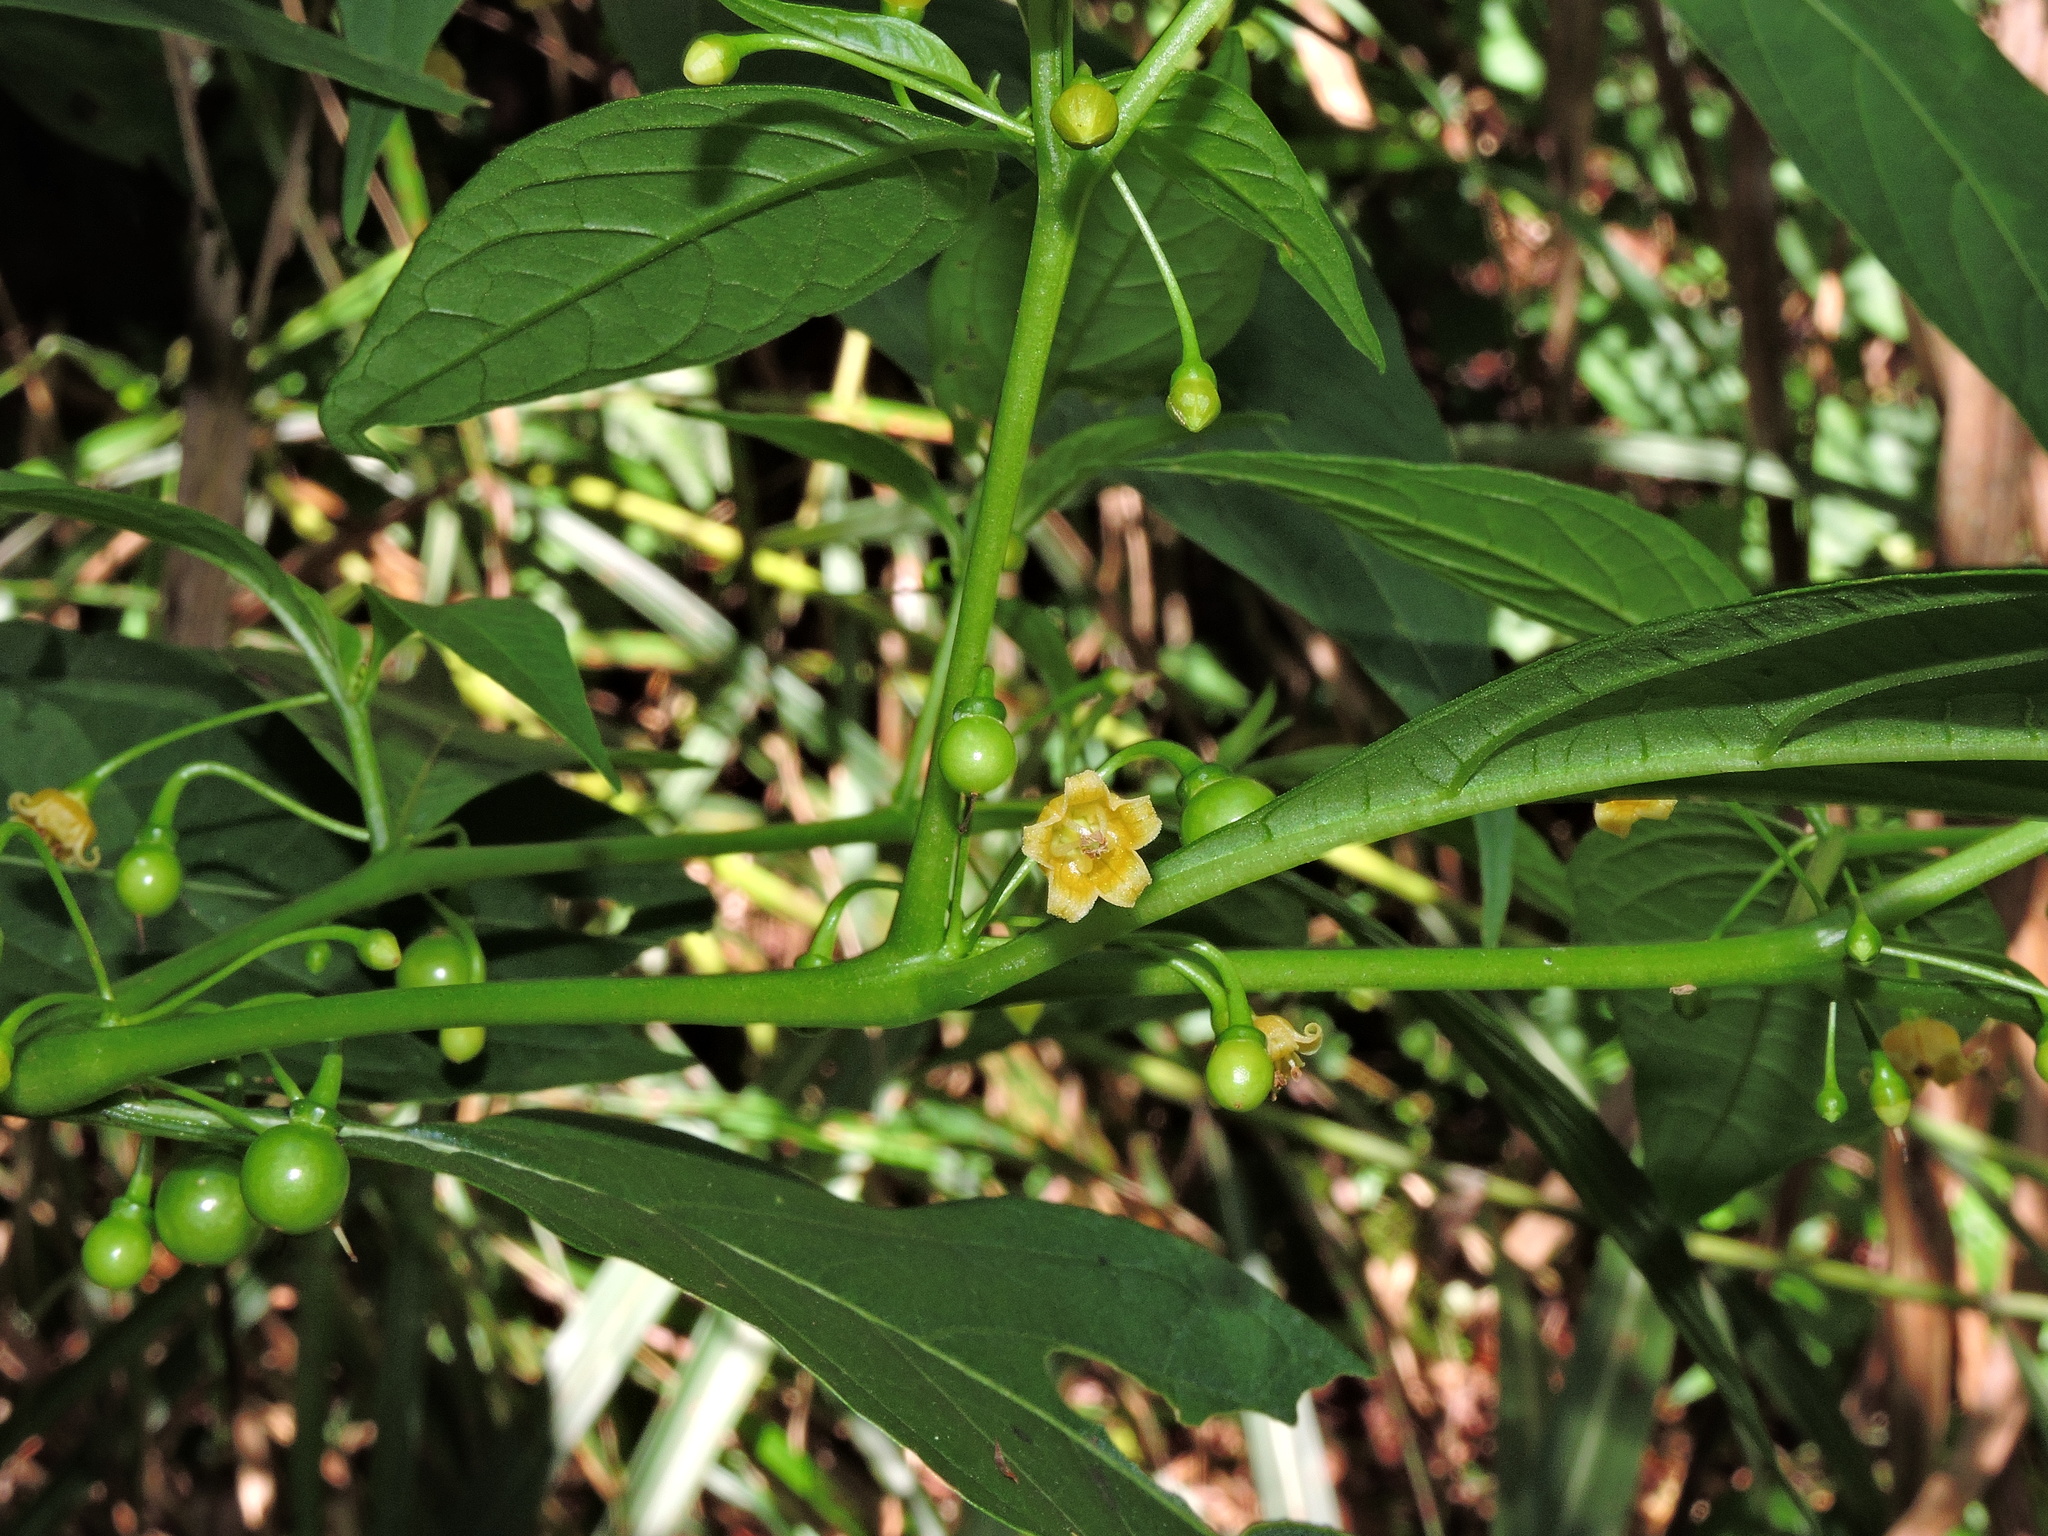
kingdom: Plantae
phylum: Tracheophyta
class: Magnoliopsida
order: Solanales
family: Solanaceae
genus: Tubocapsicum
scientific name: Tubocapsicum anomalum
